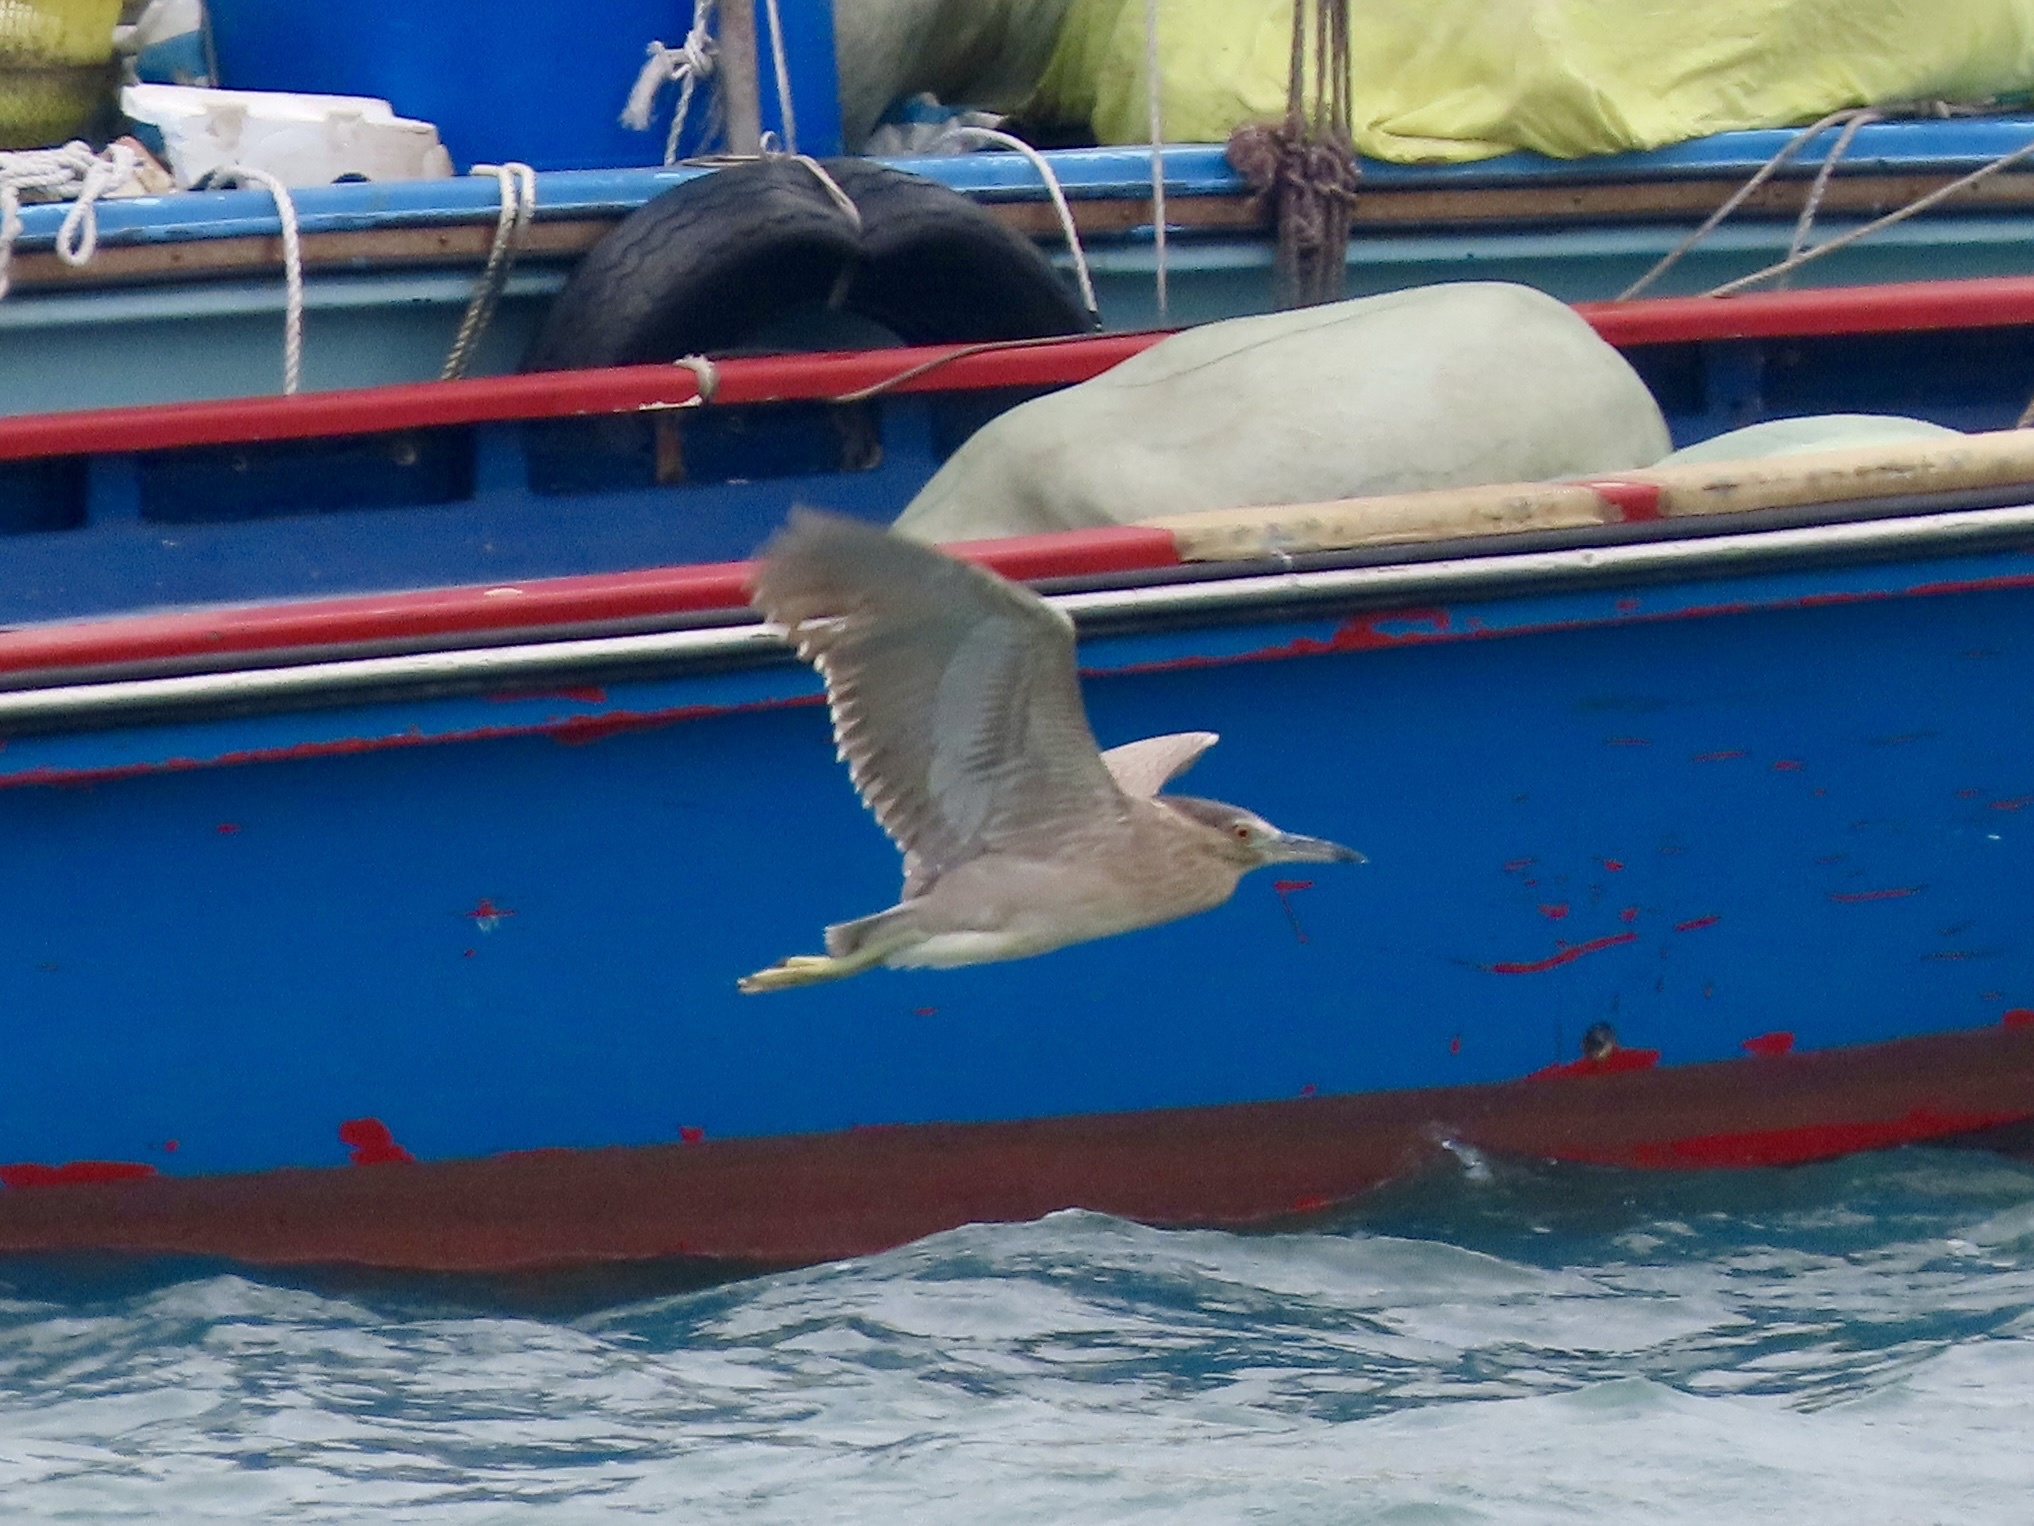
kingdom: Animalia
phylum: Chordata
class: Aves
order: Pelecaniformes
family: Ardeidae
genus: Nycticorax
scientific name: Nycticorax nycticorax
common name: Black-crowned night heron
